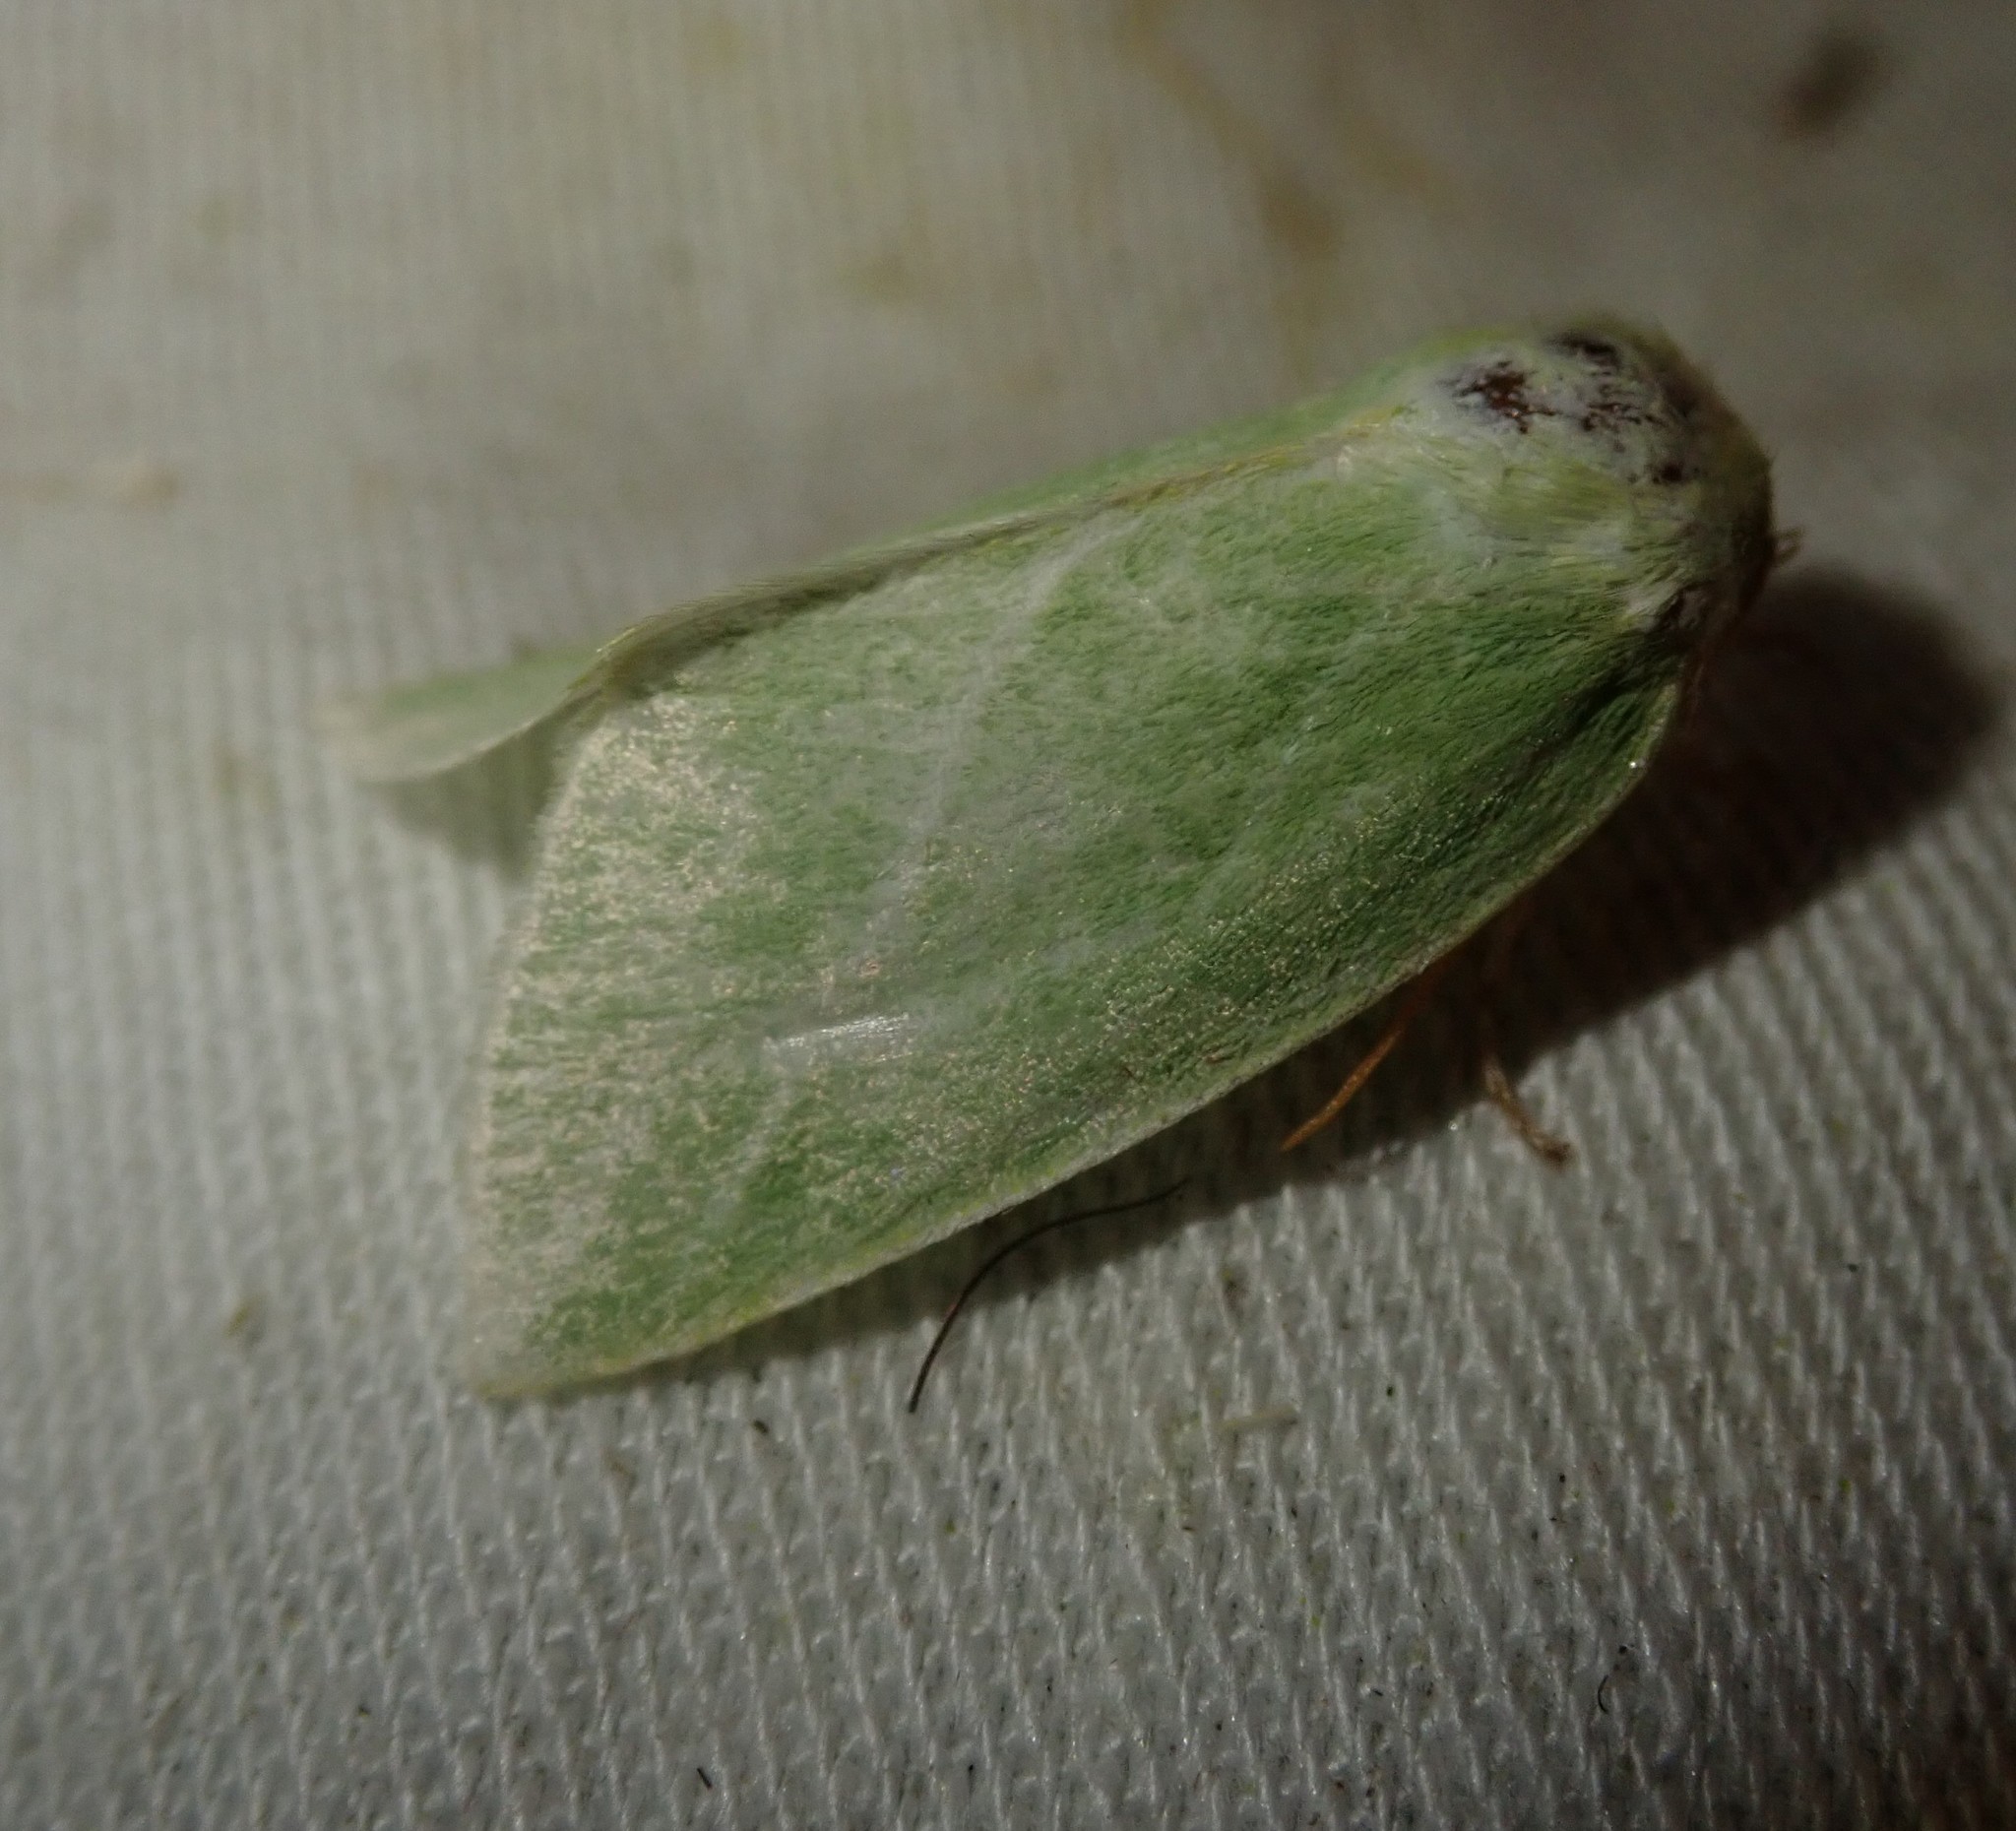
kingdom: Animalia
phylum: Arthropoda
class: Insecta
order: Lepidoptera
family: Nolidae
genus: Pseudoips
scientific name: Pseudoips prasinana
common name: Green silver-lines
